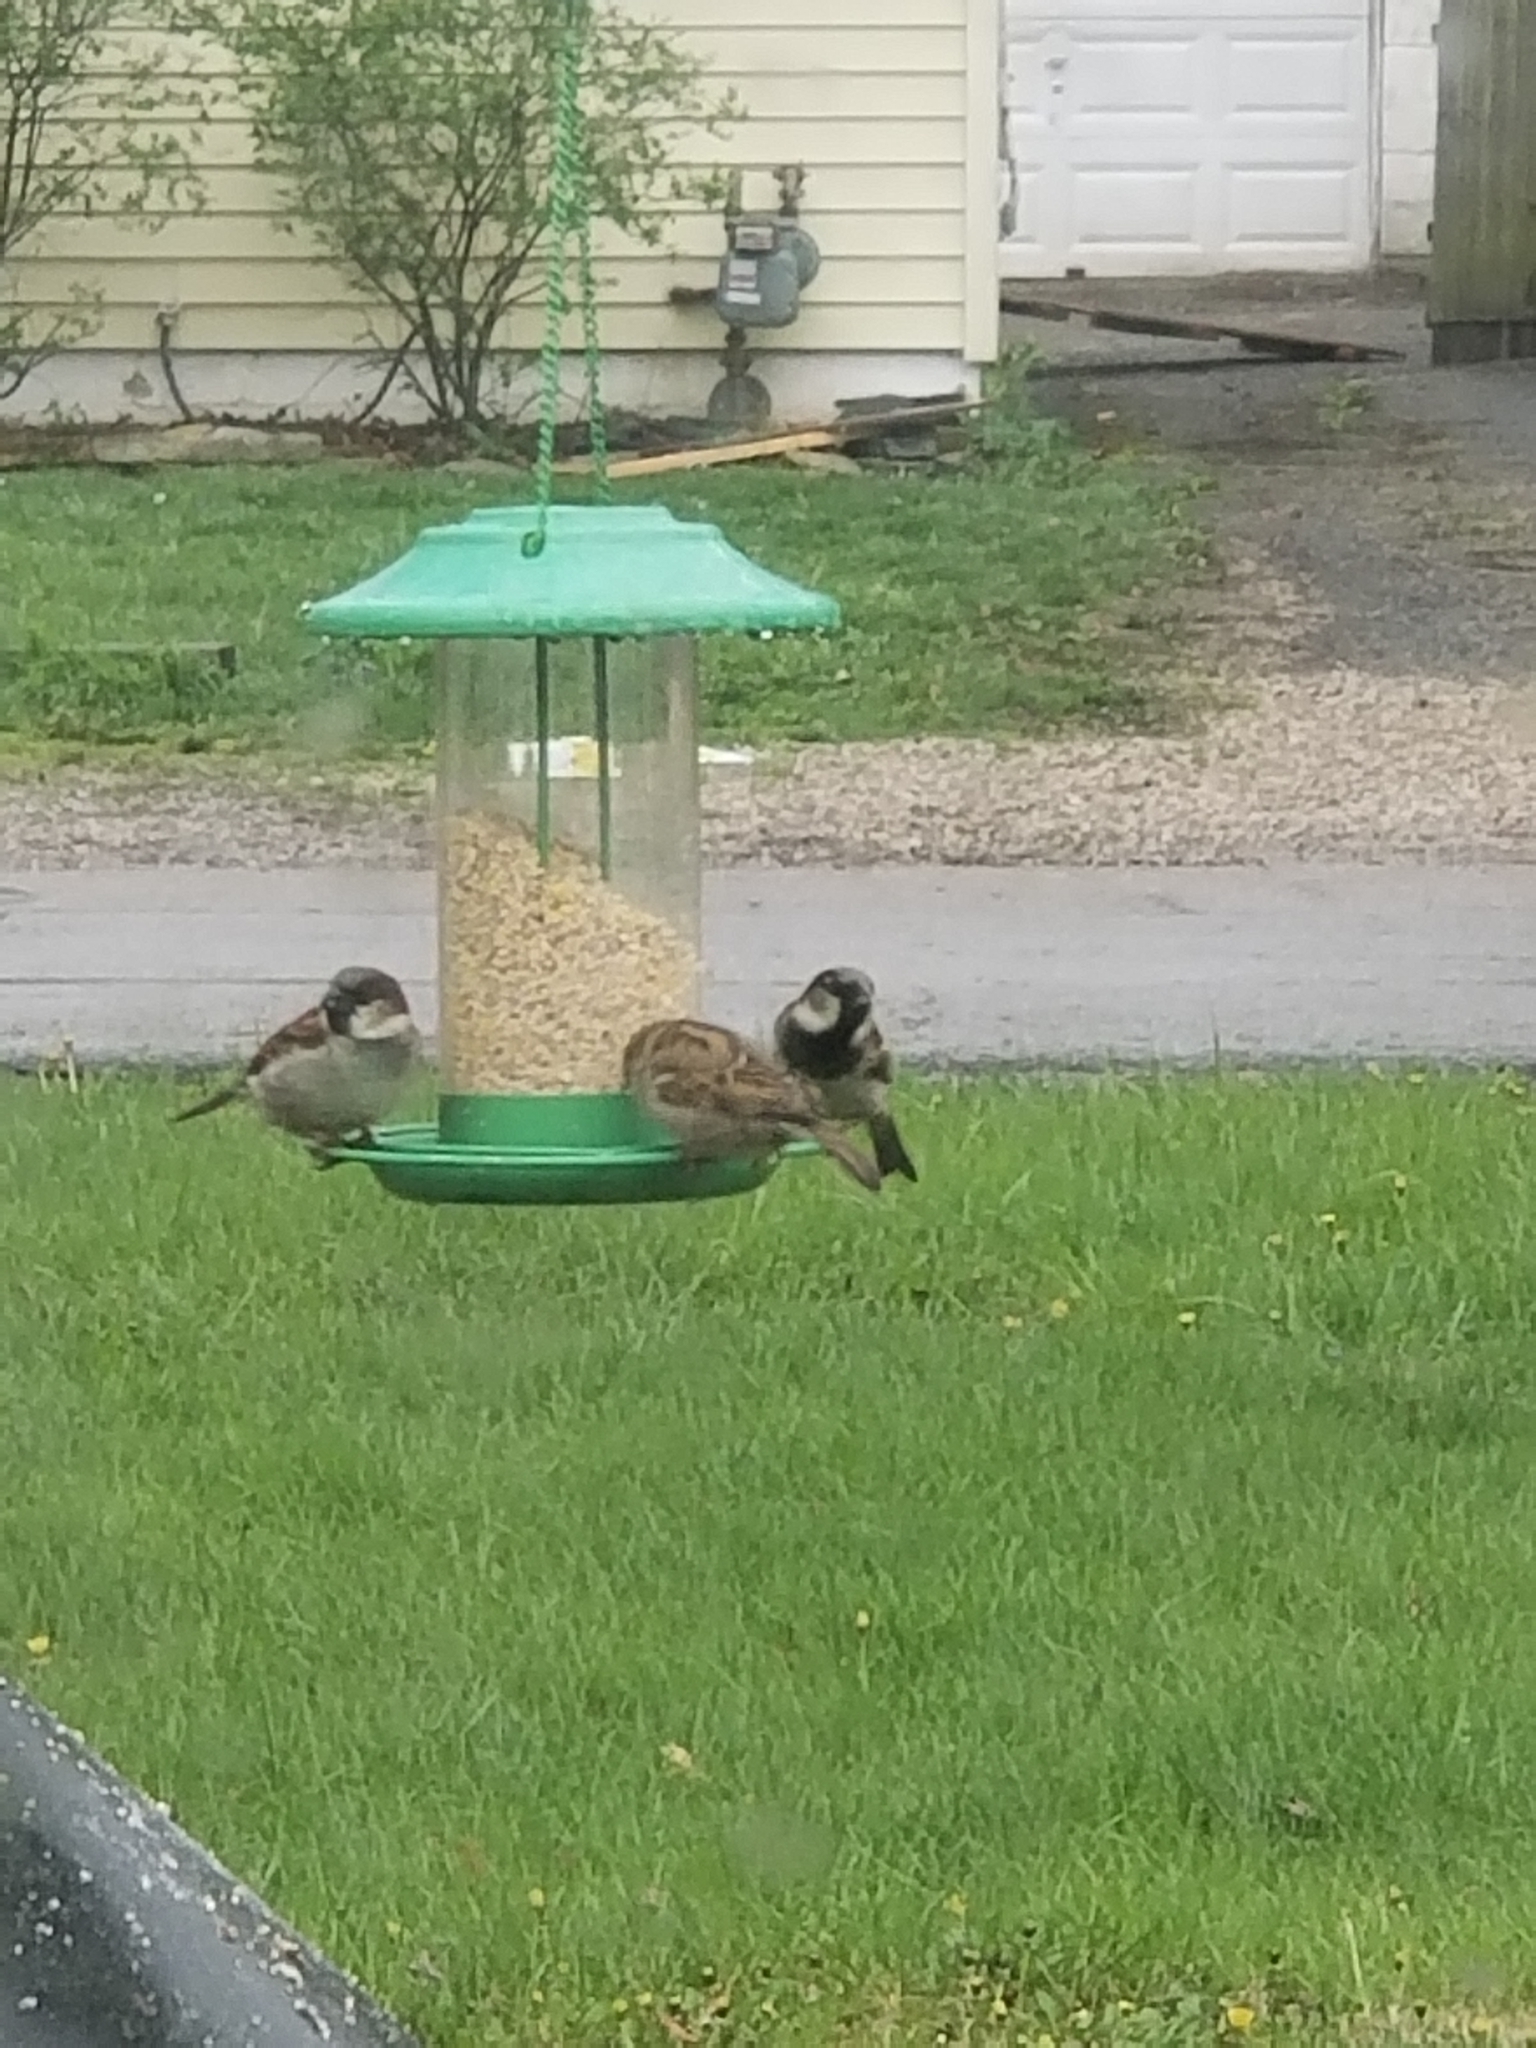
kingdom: Animalia
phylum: Chordata
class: Aves
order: Passeriformes
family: Passeridae
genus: Passer
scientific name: Passer domesticus
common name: House sparrow
